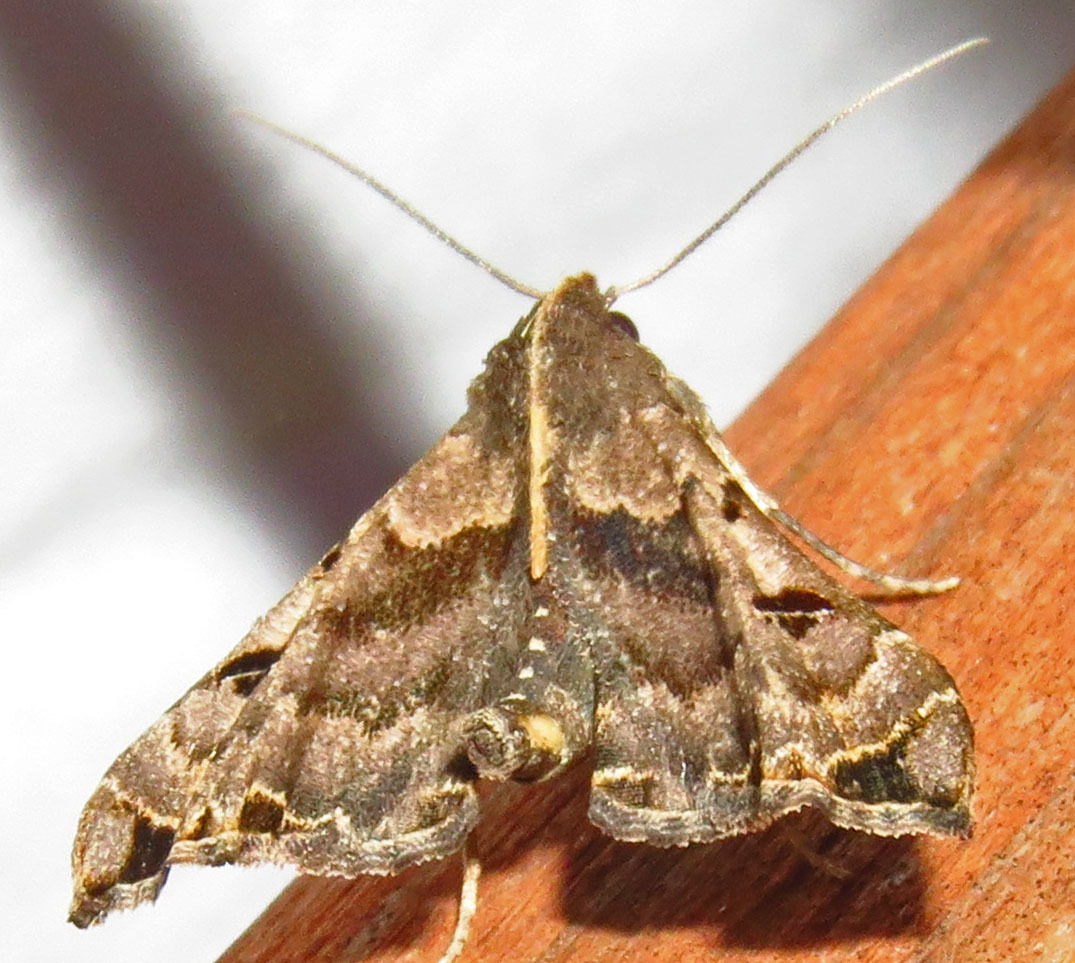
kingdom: Animalia
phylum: Arthropoda
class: Insecta
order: Lepidoptera
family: Erebidae
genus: Palthis
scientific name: Palthis asopialis
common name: Faint-spotted palthis moth
